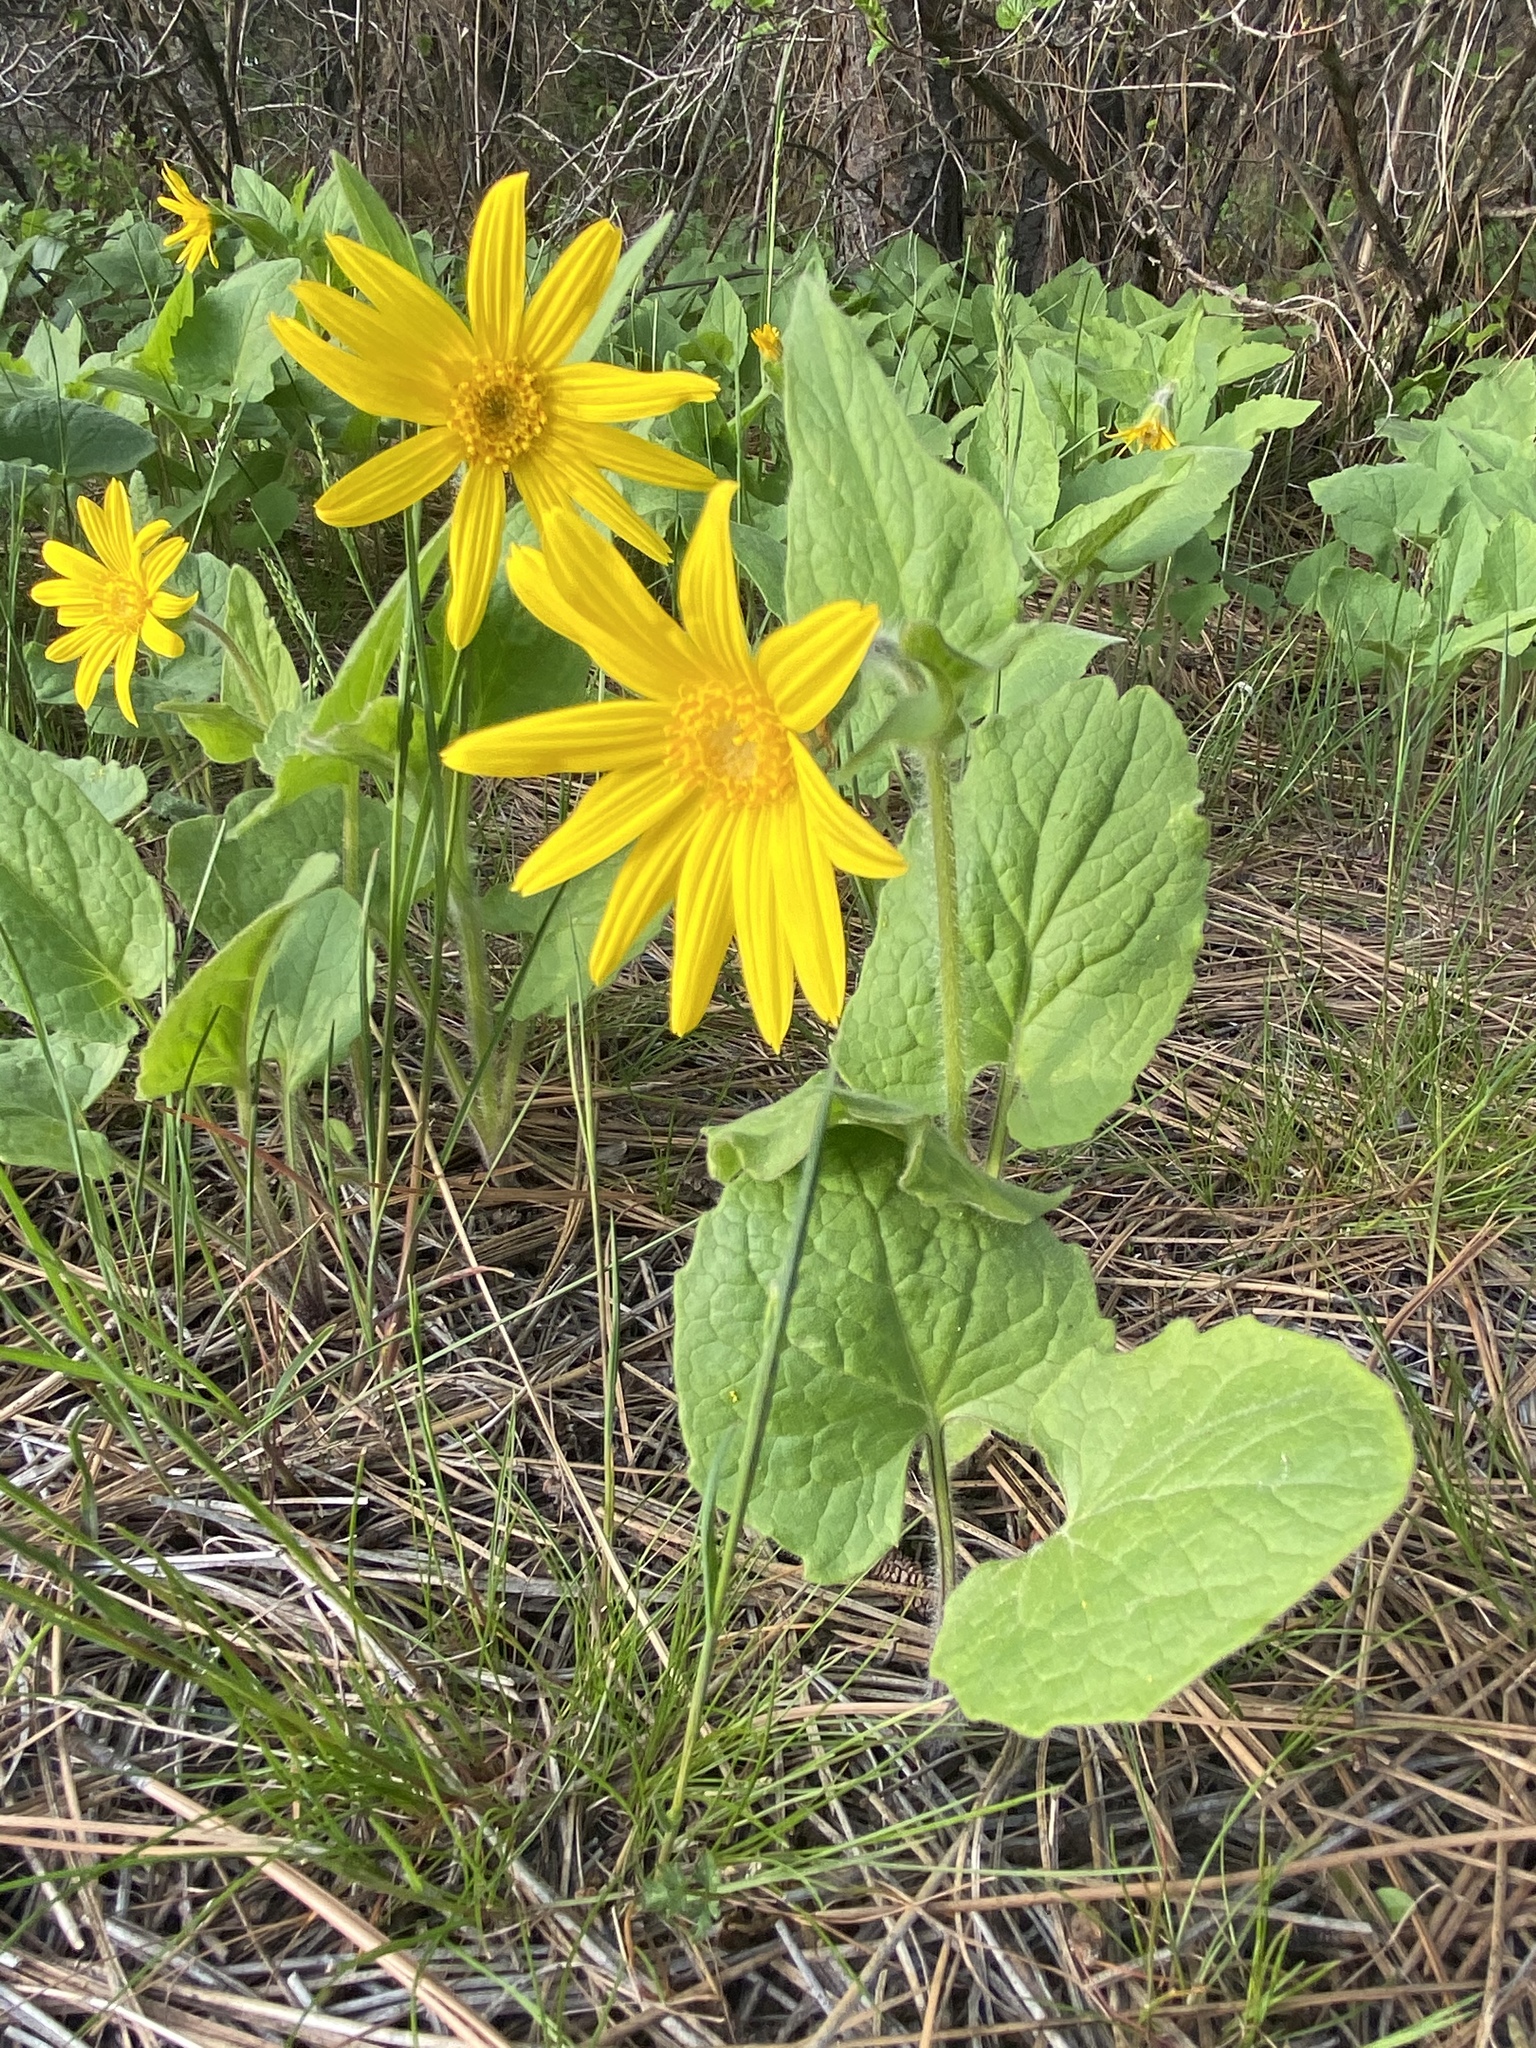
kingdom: Plantae
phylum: Tracheophyta
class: Magnoliopsida
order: Asterales
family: Asteraceae
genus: Arnica
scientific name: Arnica cordifolia
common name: Heart-leaf arnica
